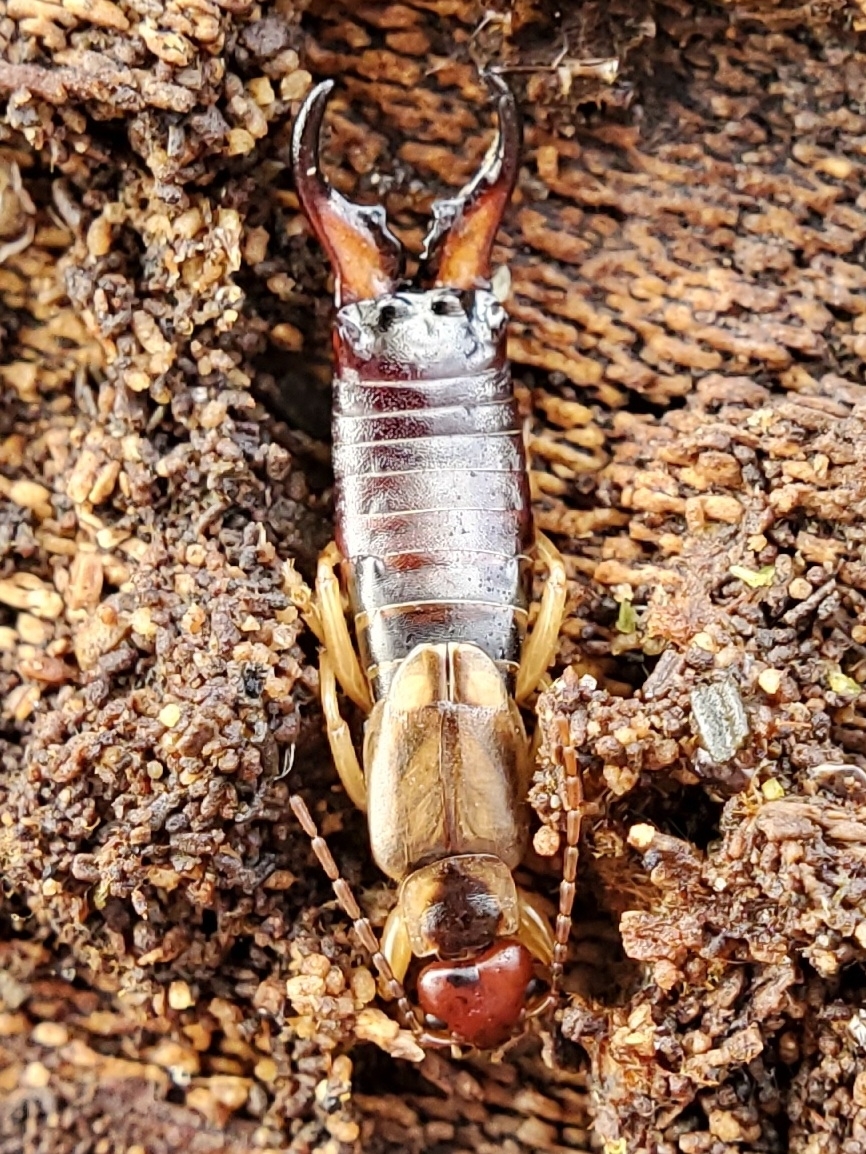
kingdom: Animalia
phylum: Arthropoda
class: Insecta
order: Dermaptera
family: Forficulidae
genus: Forficula
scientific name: Forficula
